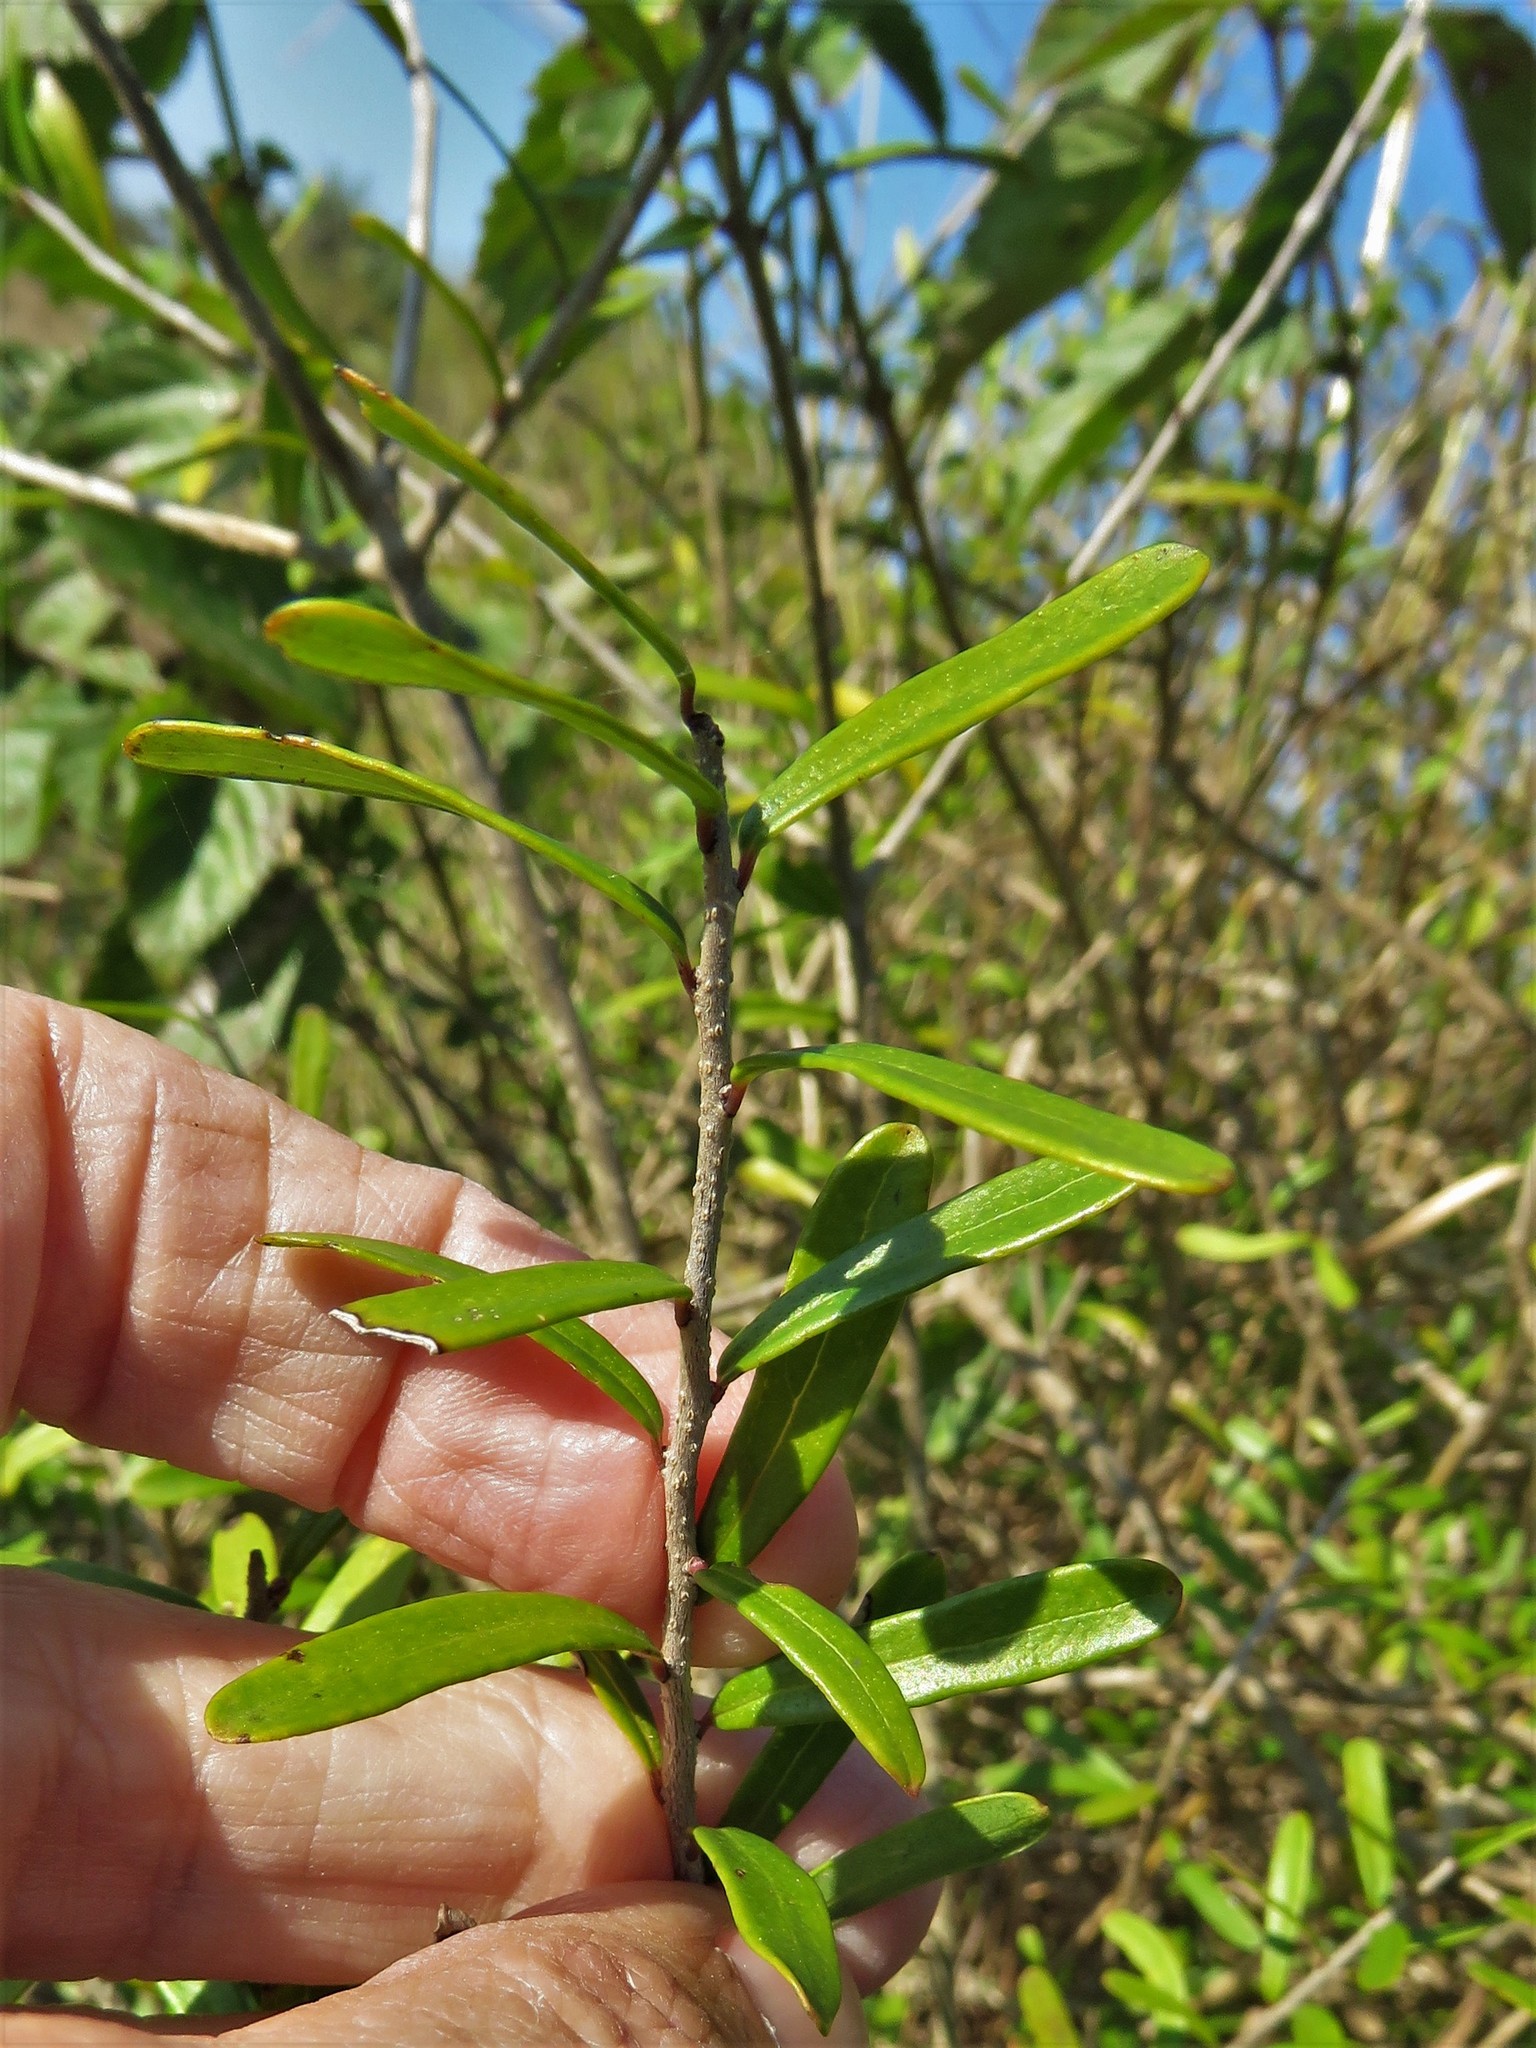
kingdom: Plantae
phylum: Tracheophyta
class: Magnoliopsida
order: Lamiales
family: Oleaceae
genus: Forestiera
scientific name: Forestiera angustifolia
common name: Elbowbush
